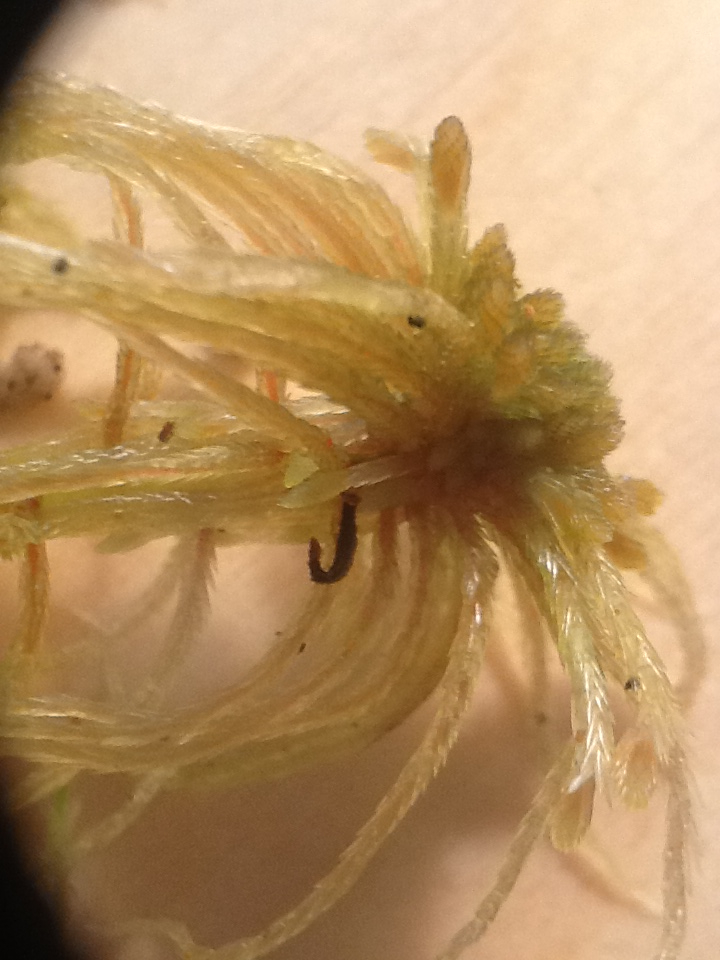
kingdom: Plantae
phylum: Bryophyta
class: Sphagnopsida
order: Sphagnales
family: Sphagnaceae
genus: Sphagnum
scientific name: Sphagnum angustifolium
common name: Narrow-leaved peat moss
